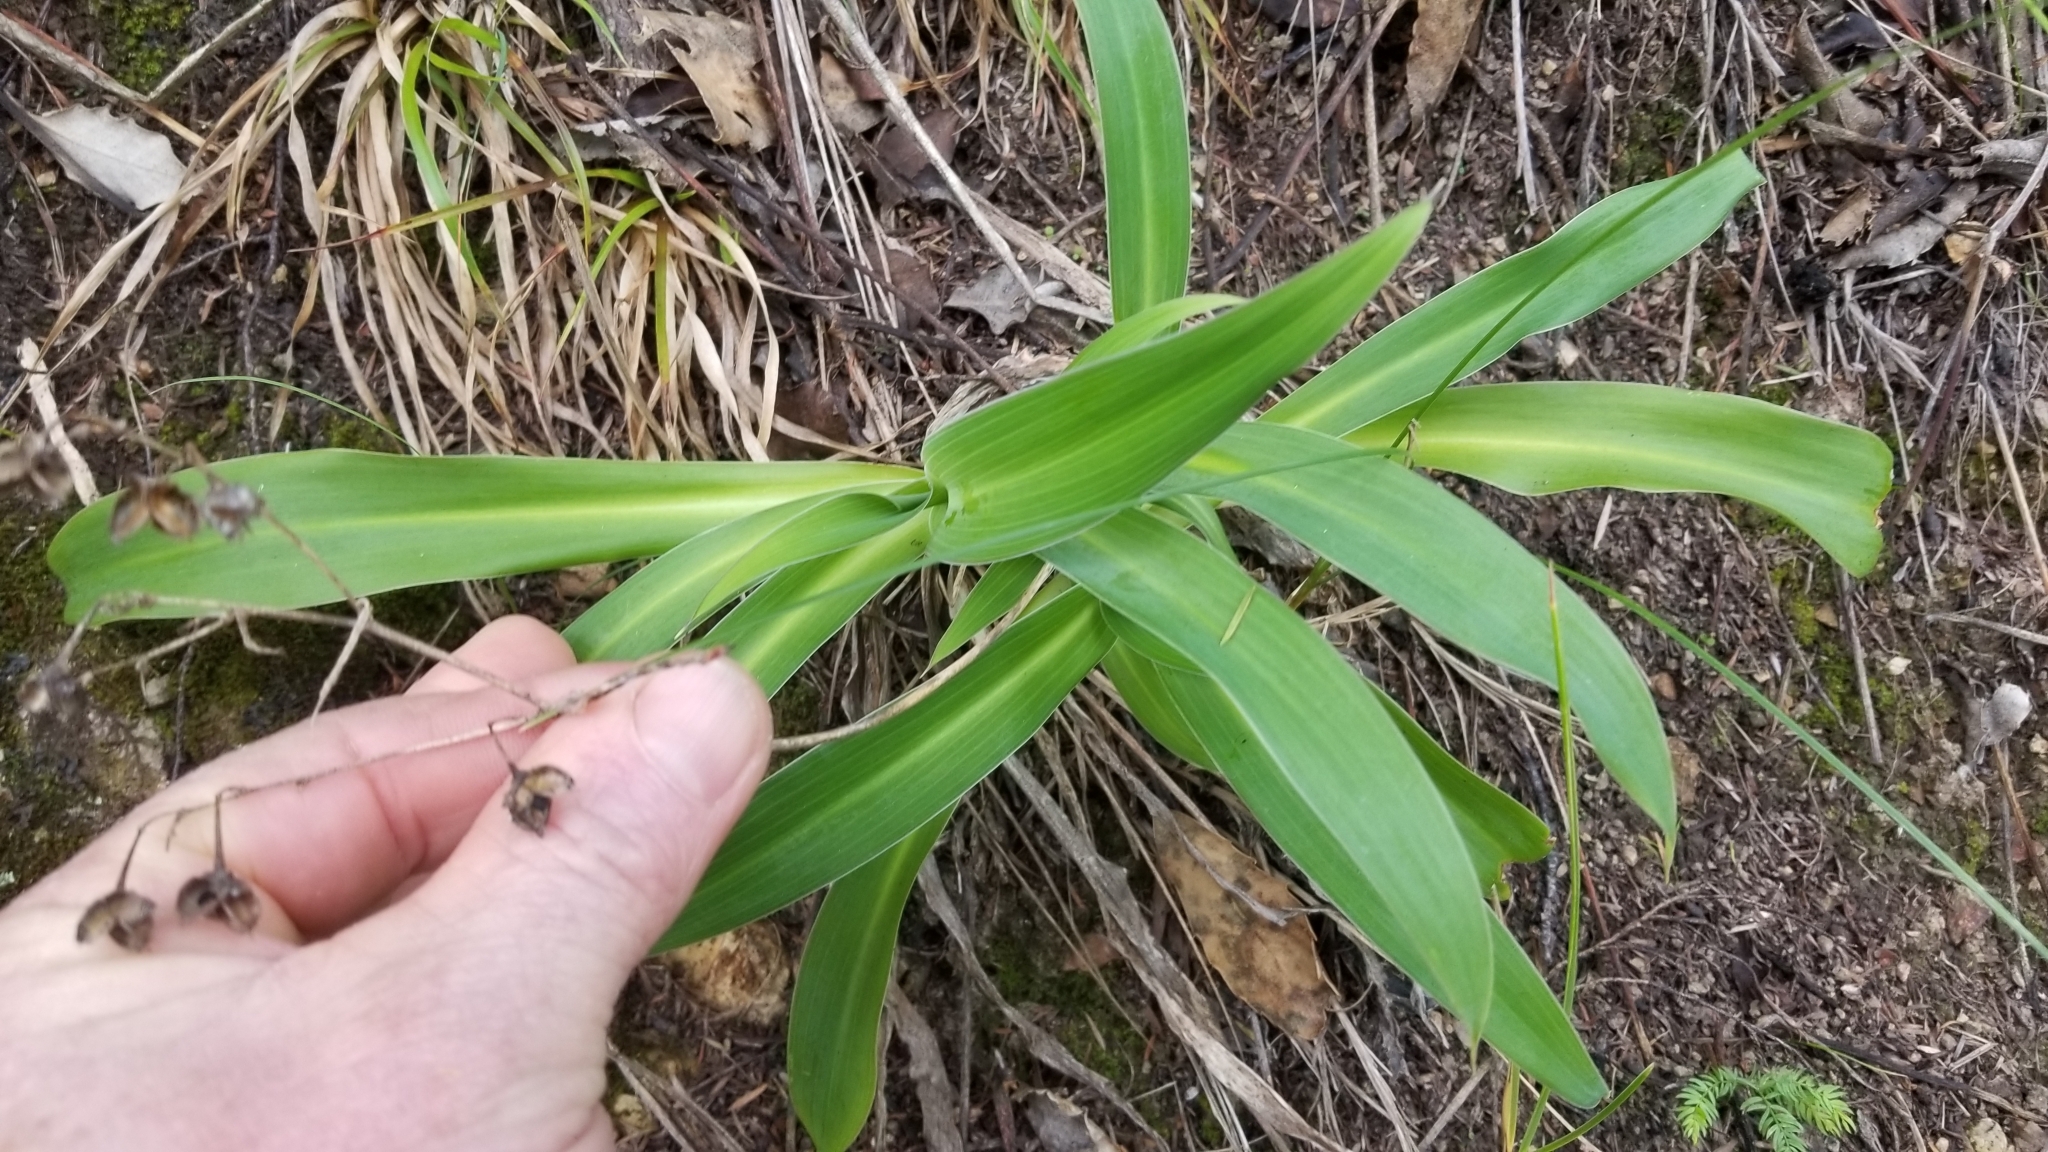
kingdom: Plantae
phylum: Tracheophyta
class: Liliopsida
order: Asparagales
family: Asparagaceae
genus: Arthropodium
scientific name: Arthropodium cirratum
